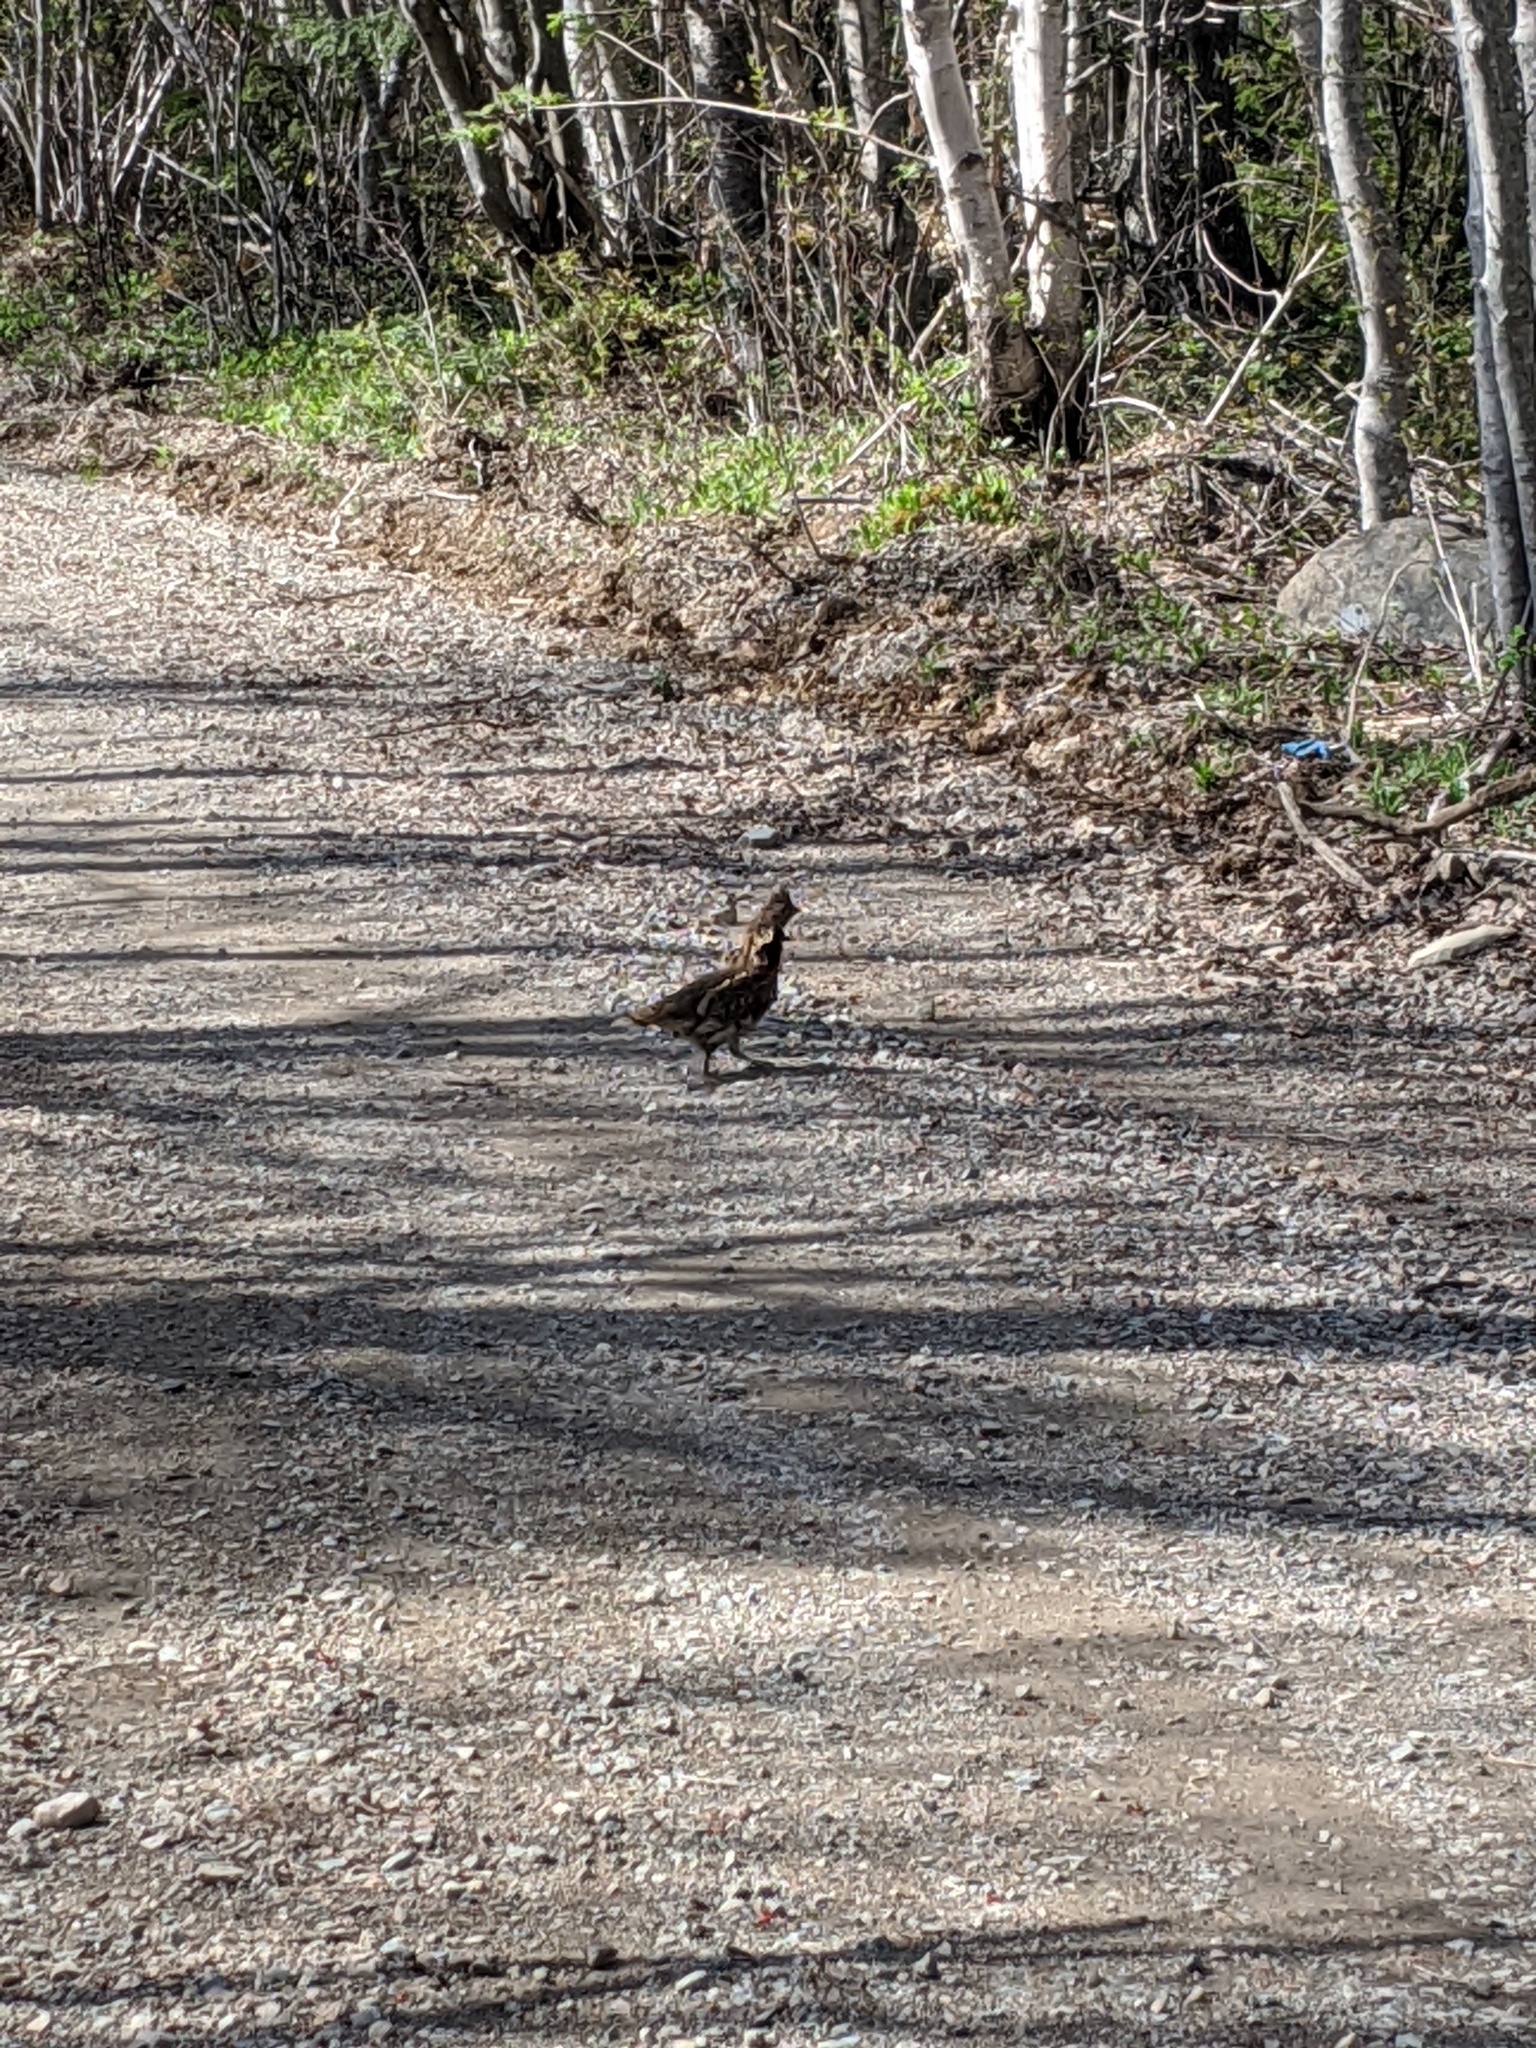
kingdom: Animalia
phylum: Chordata
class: Aves
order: Galliformes
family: Phasianidae
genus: Bonasa
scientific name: Bonasa umbellus
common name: Ruffed grouse
